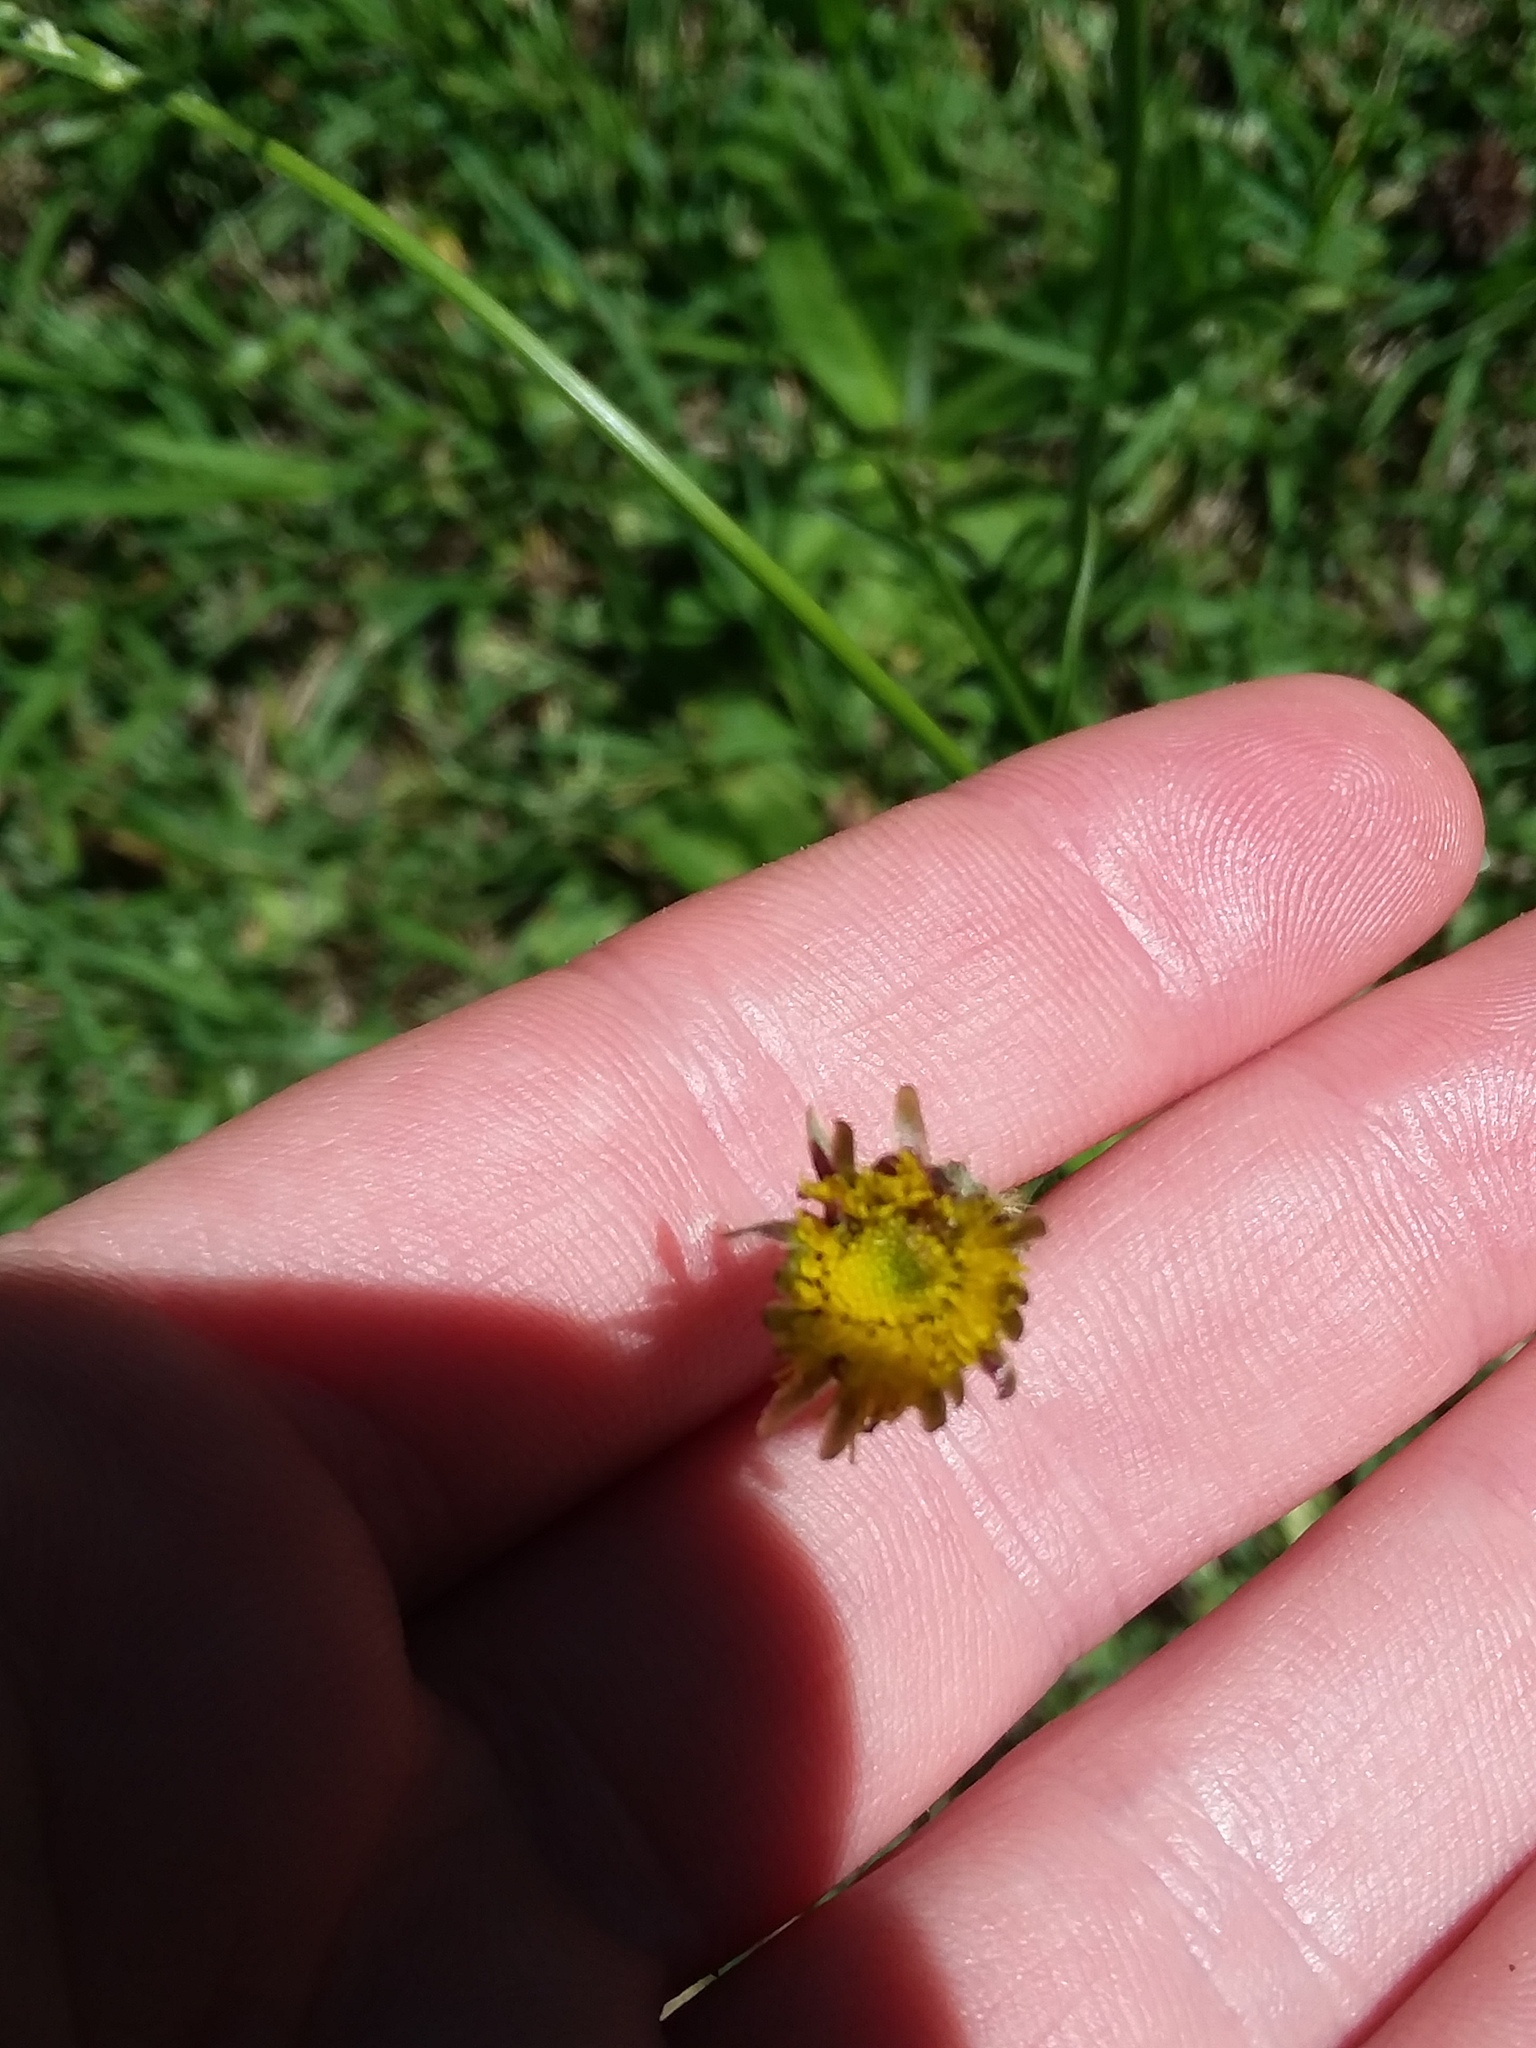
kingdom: Plantae
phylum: Tracheophyta
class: Magnoliopsida
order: Asterales
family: Asteraceae
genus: Hypochaeris
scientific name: Hypochaeris chillensis
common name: Brazilian cat's ear
